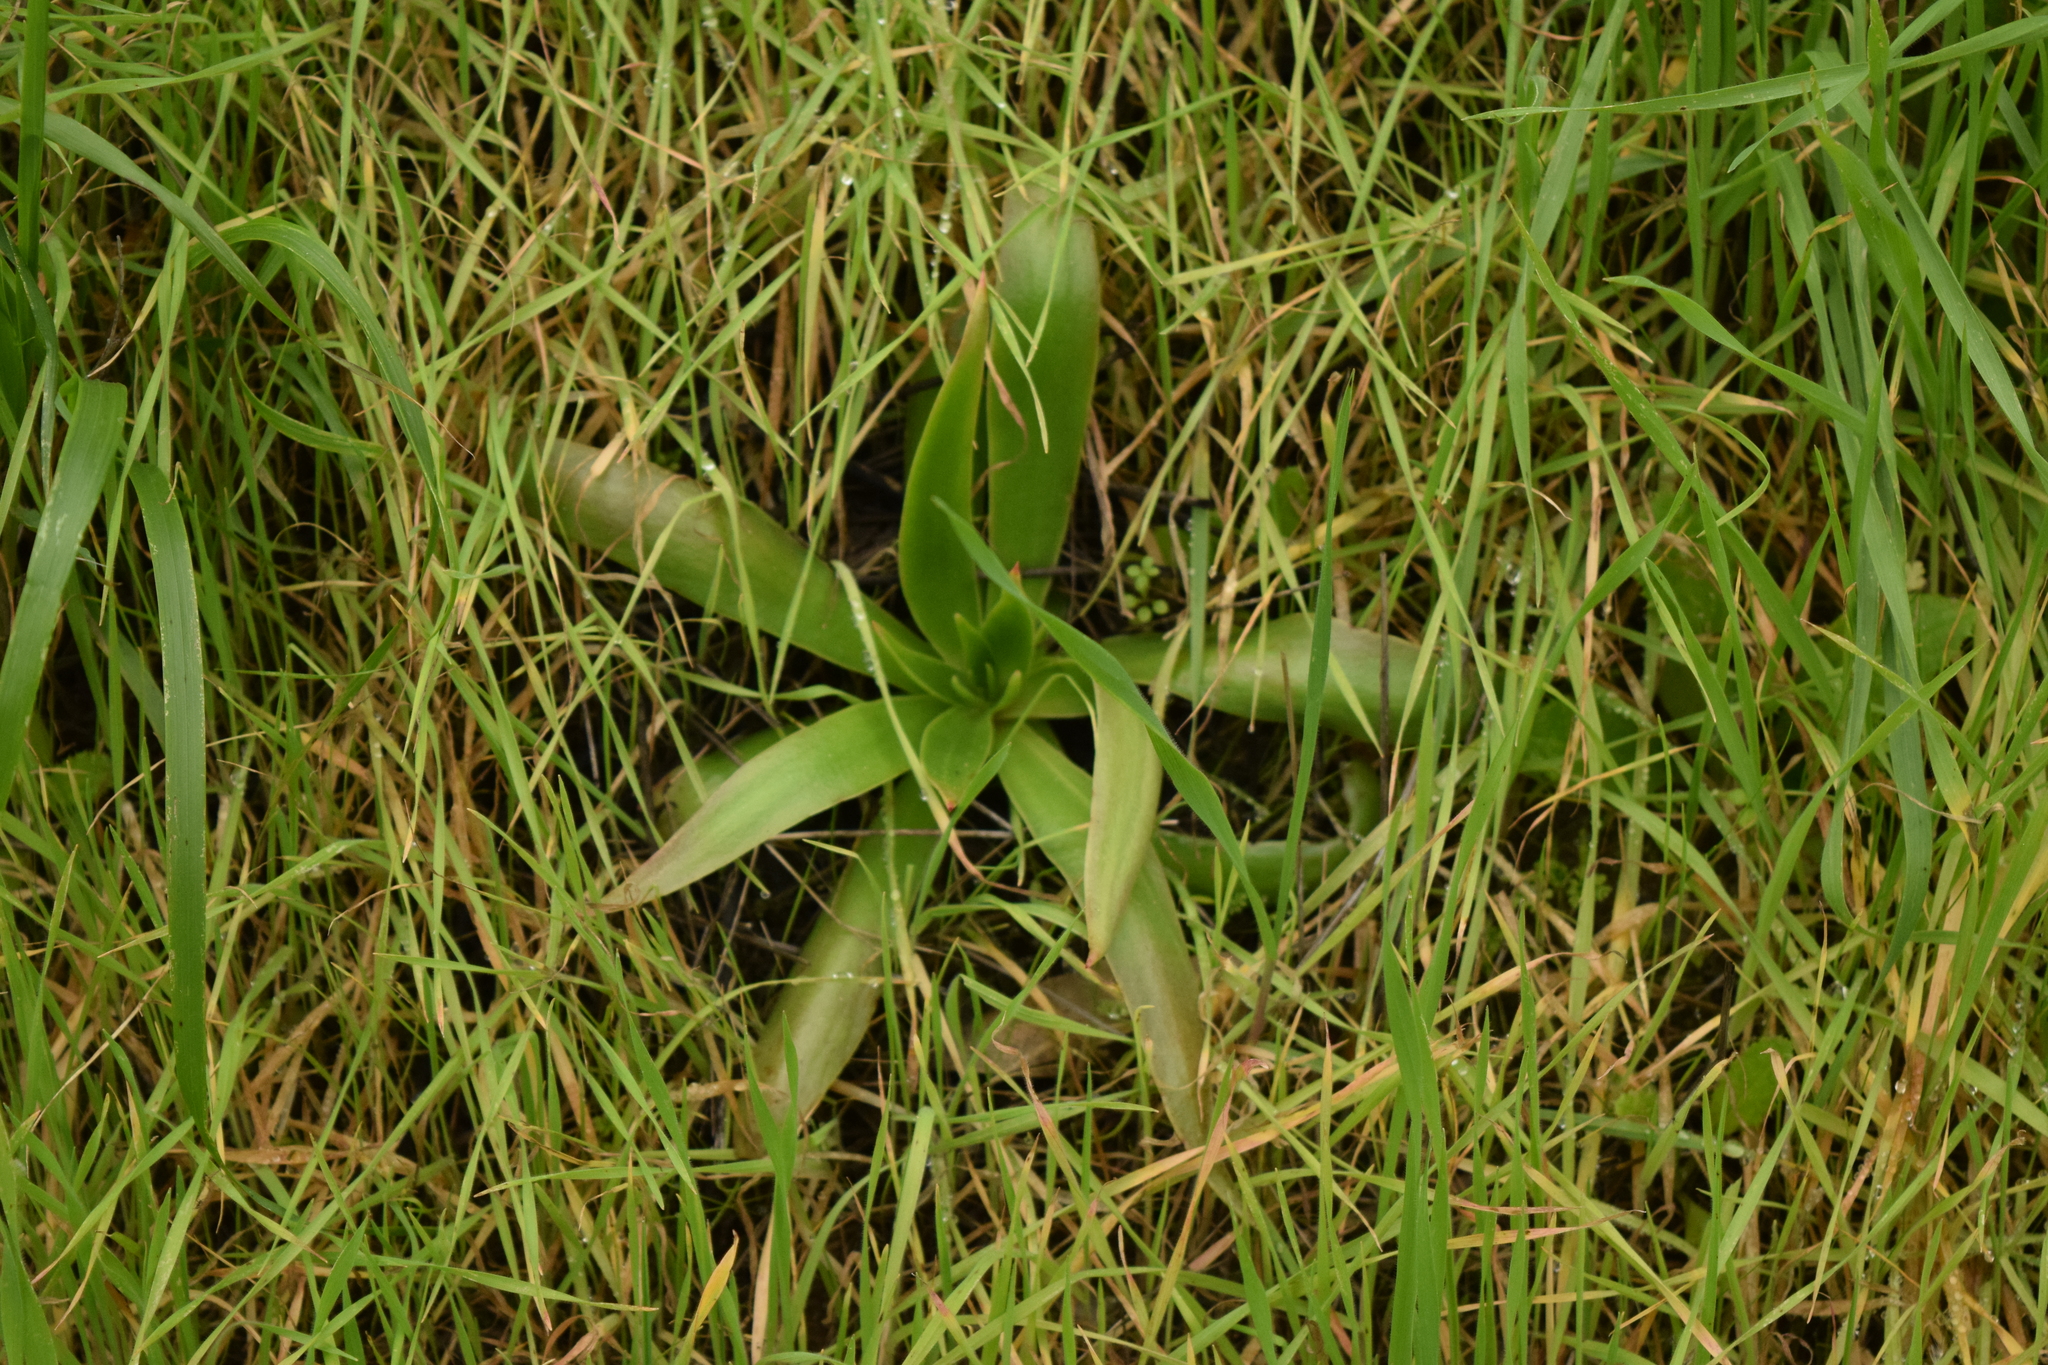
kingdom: Plantae
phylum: Tracheophyta
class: Magnoliopsida
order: Saxifragales
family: Crassulaceae
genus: Dudleya
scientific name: Dudleya lanceolata
